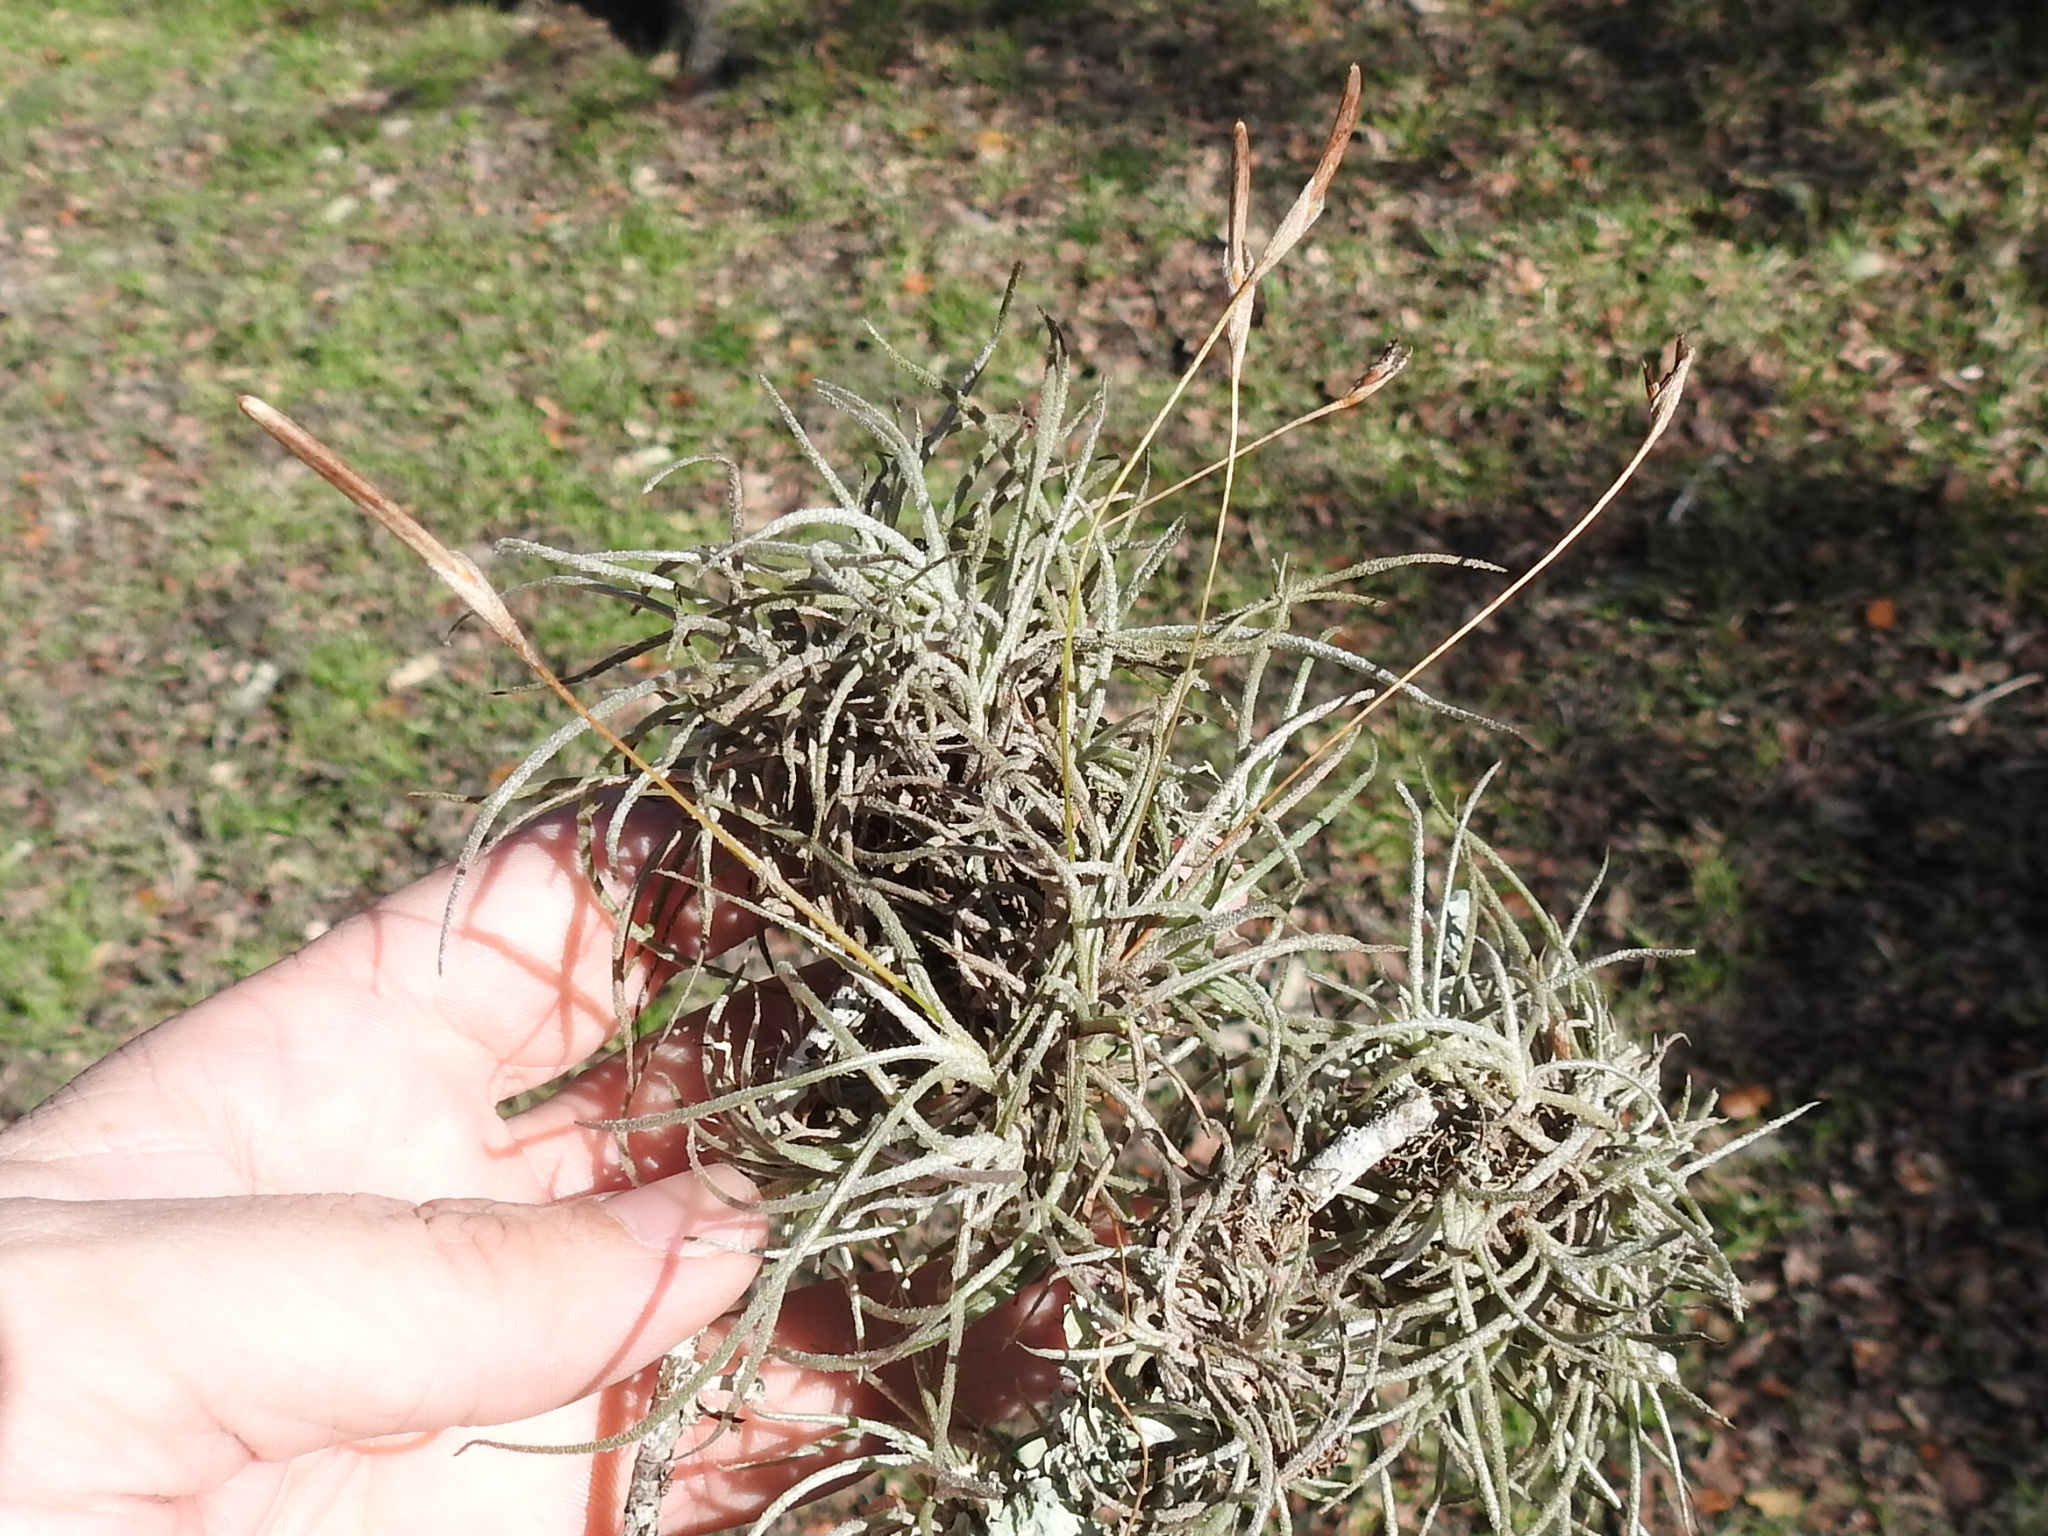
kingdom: Plantae
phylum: Tracheophyta
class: Liliopsida
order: Poales
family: Bromeliaceae
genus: Tillandsia
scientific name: Tillandsia recurvata
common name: Small ballmoss
